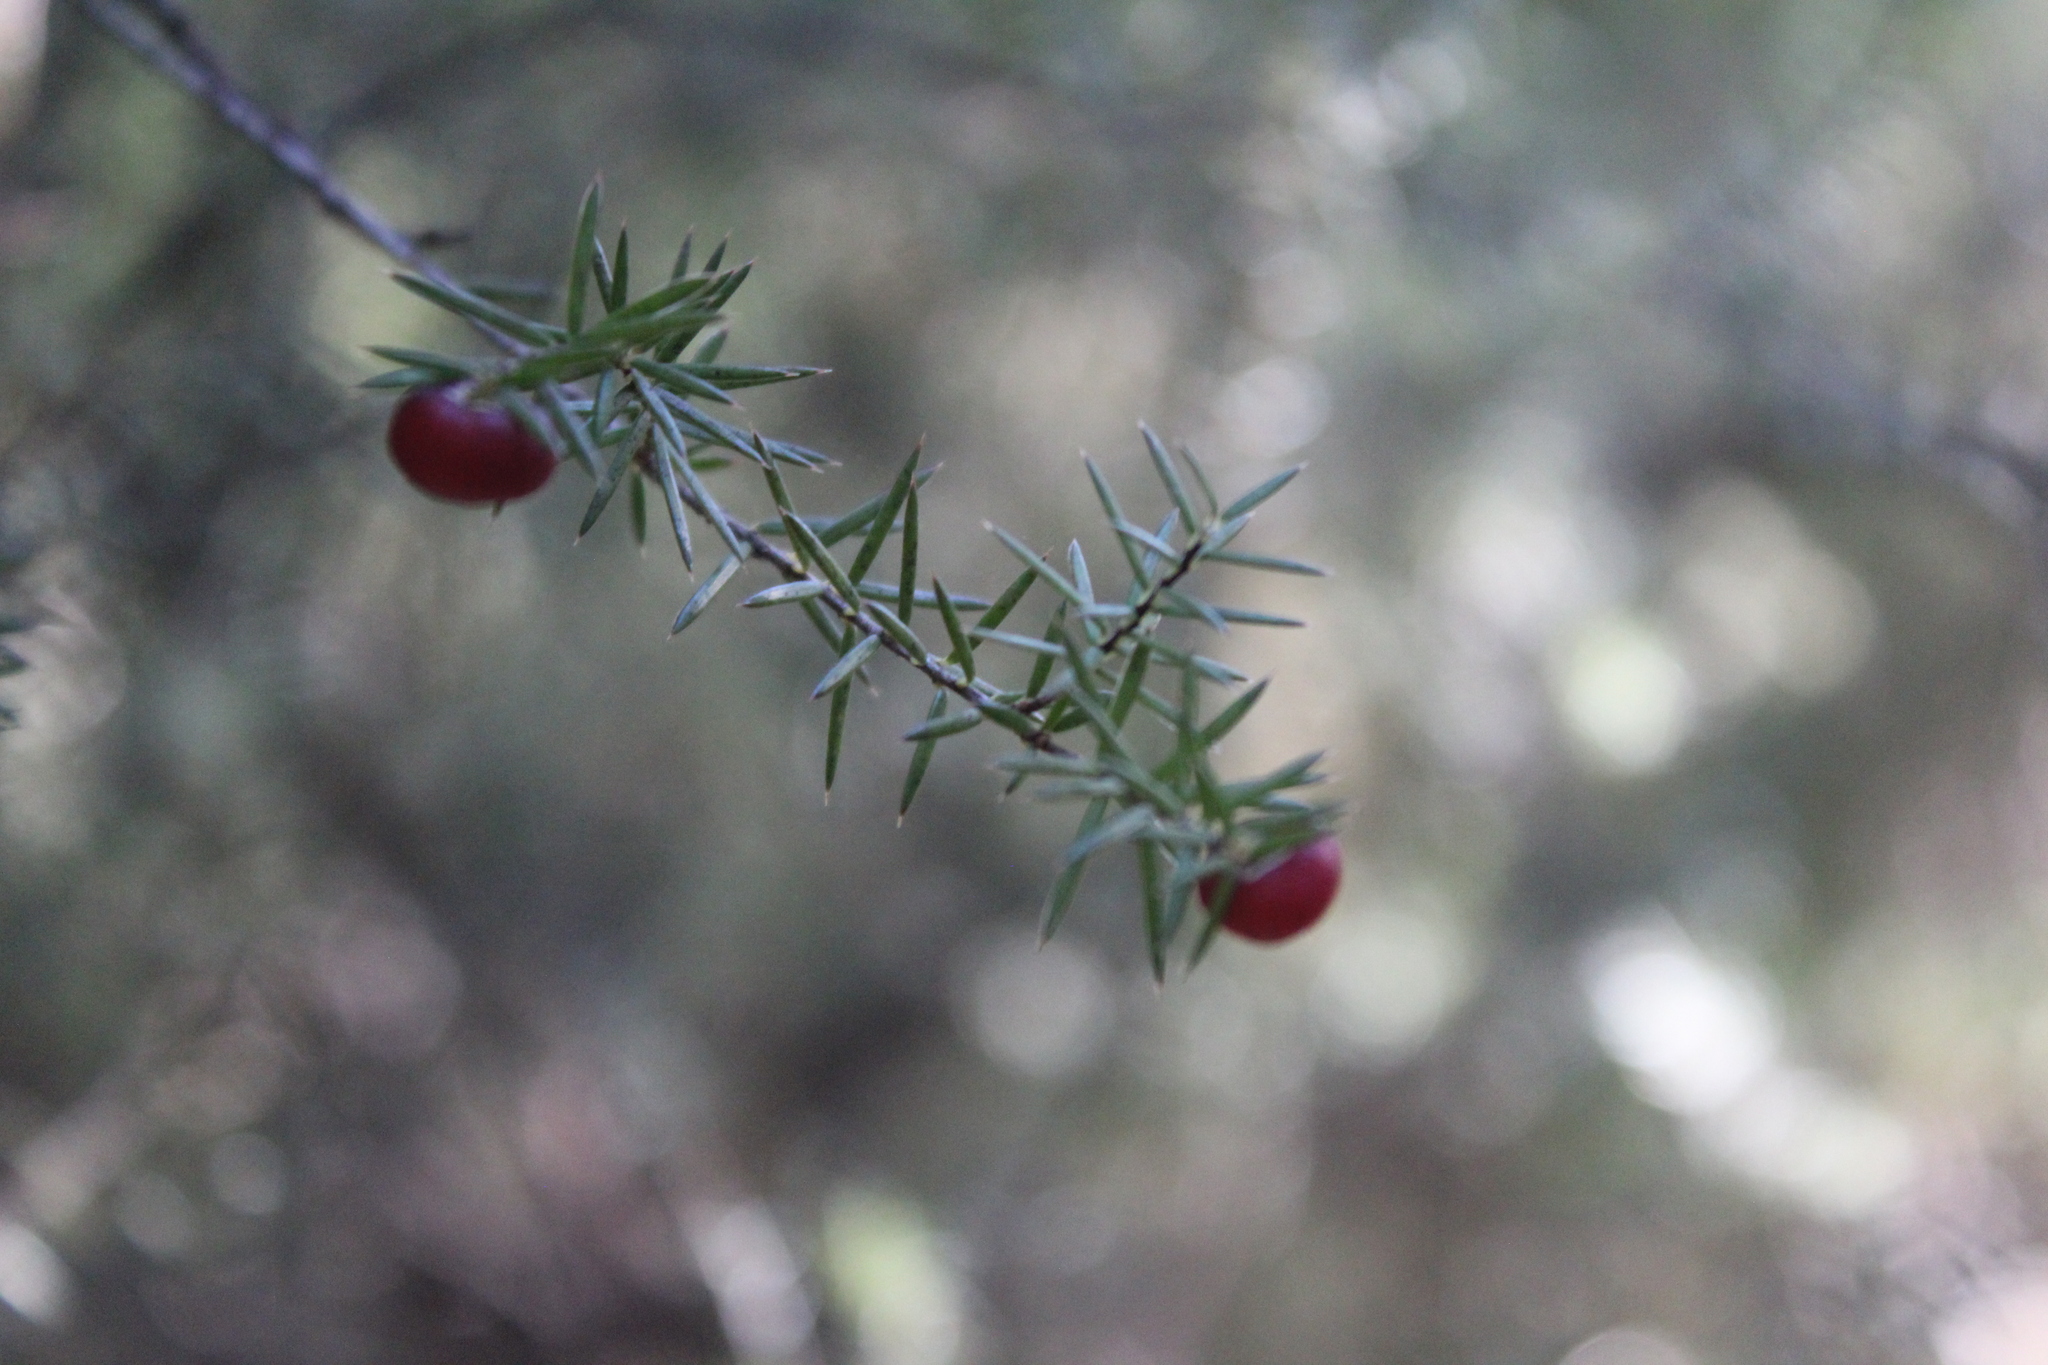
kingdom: Plantae
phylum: Tracheophyta
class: Magnoliopsida
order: Ericales
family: Ericaceae
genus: Leptecophylla
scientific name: Leptecophylla juniperina
